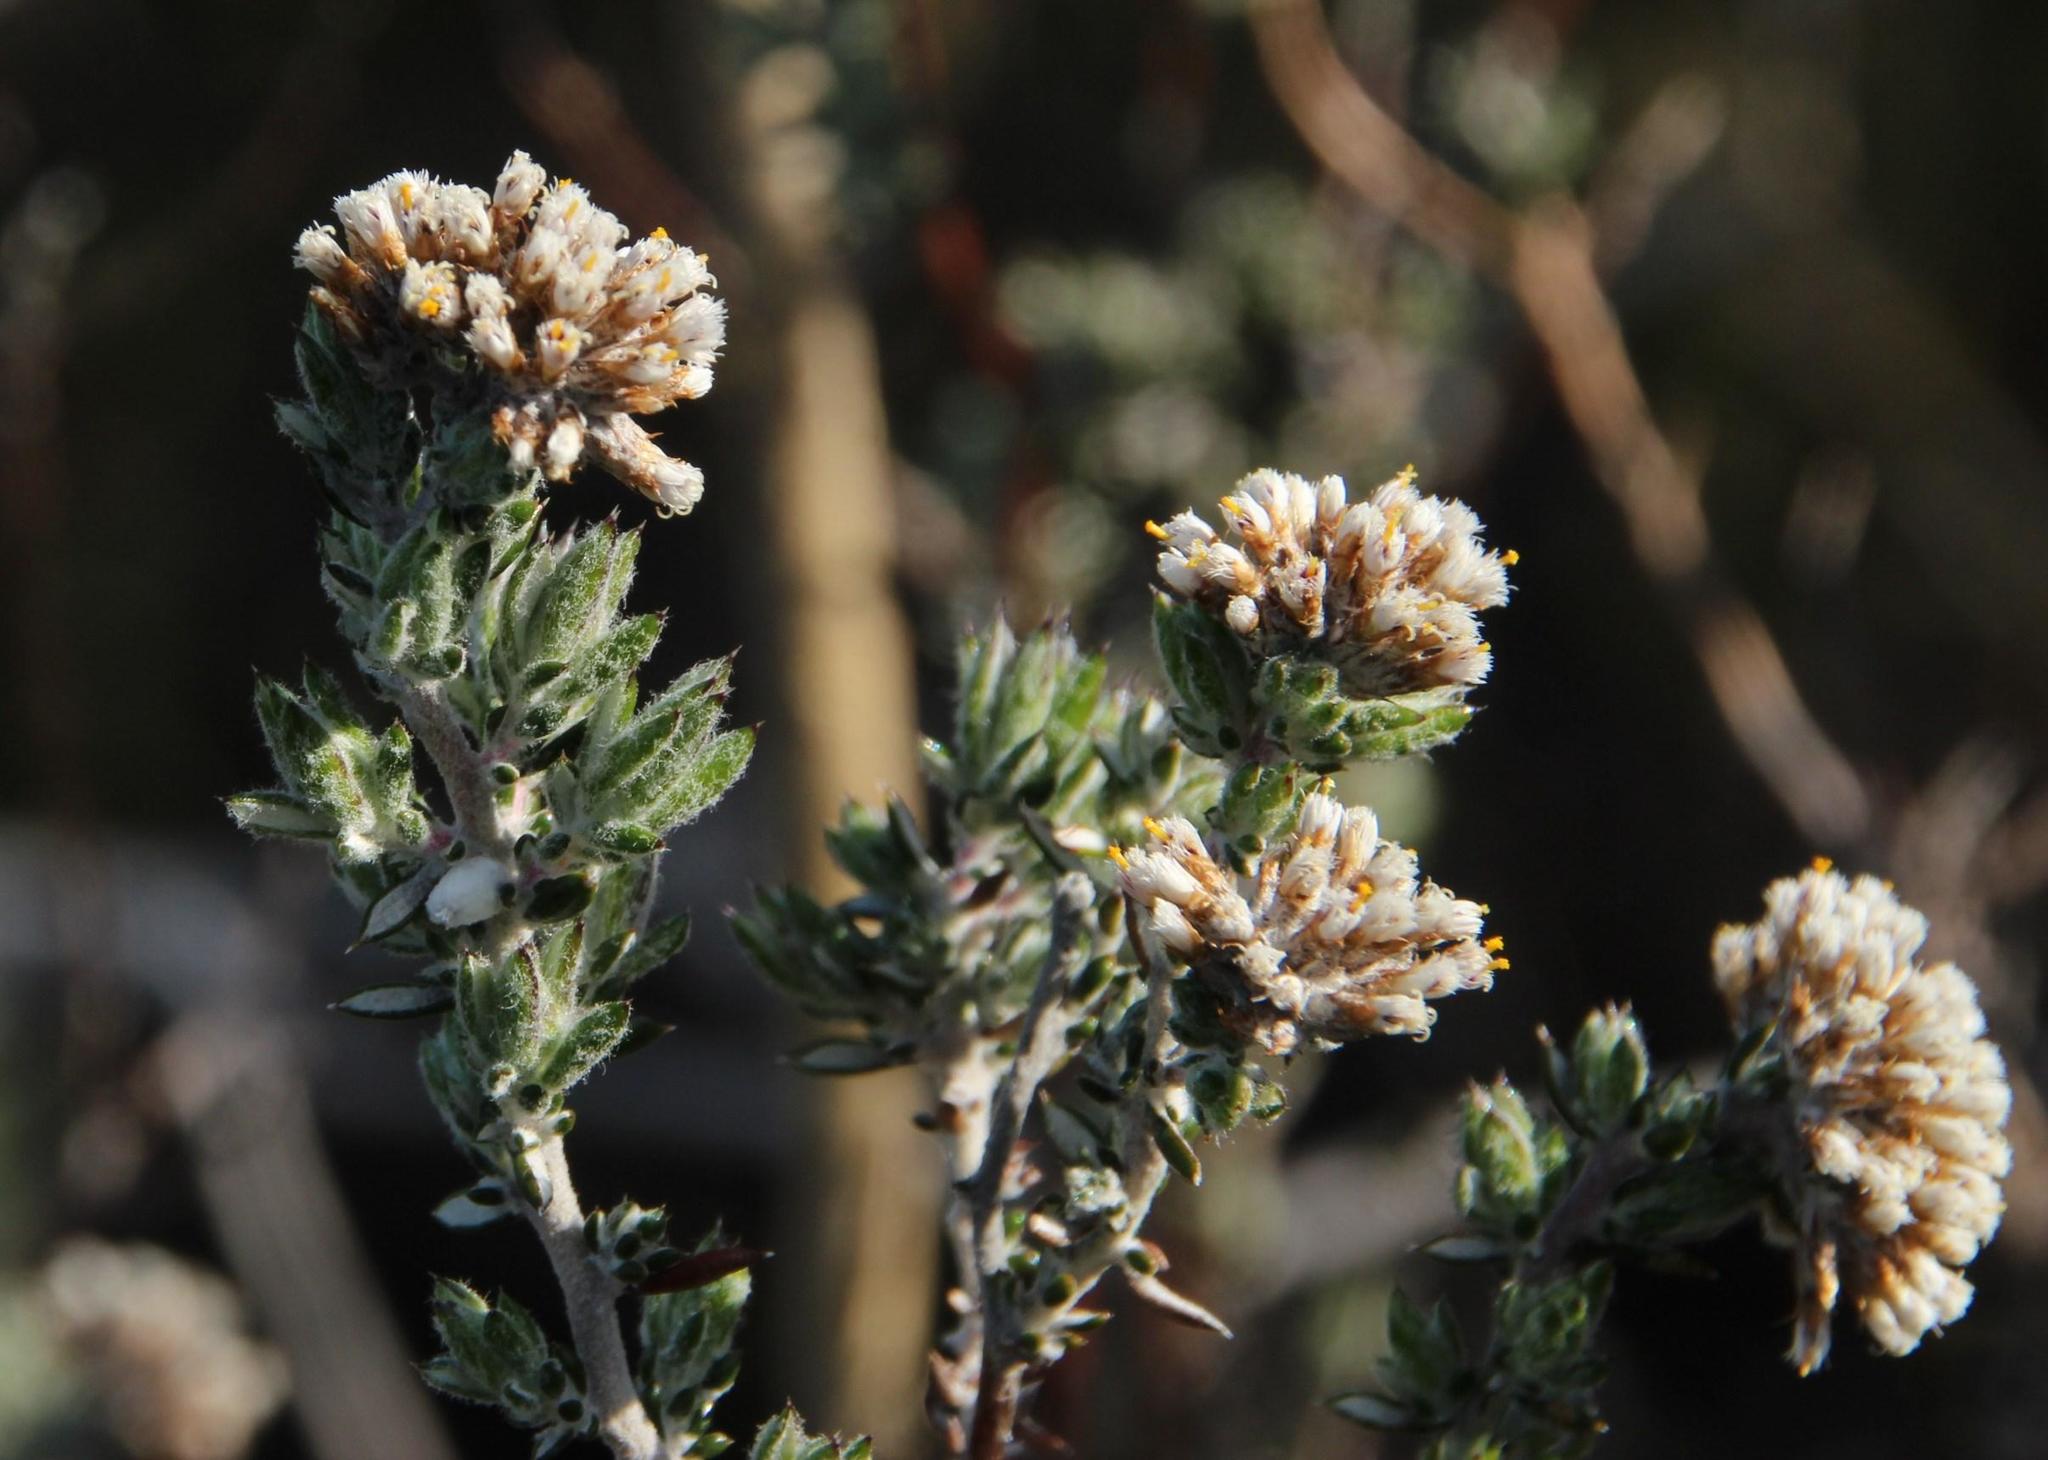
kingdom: Plantae
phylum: Tracheophyta
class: Magnoliopsida
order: Asterales
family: Asteraceae
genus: Metalasia
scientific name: Metalasia densa
